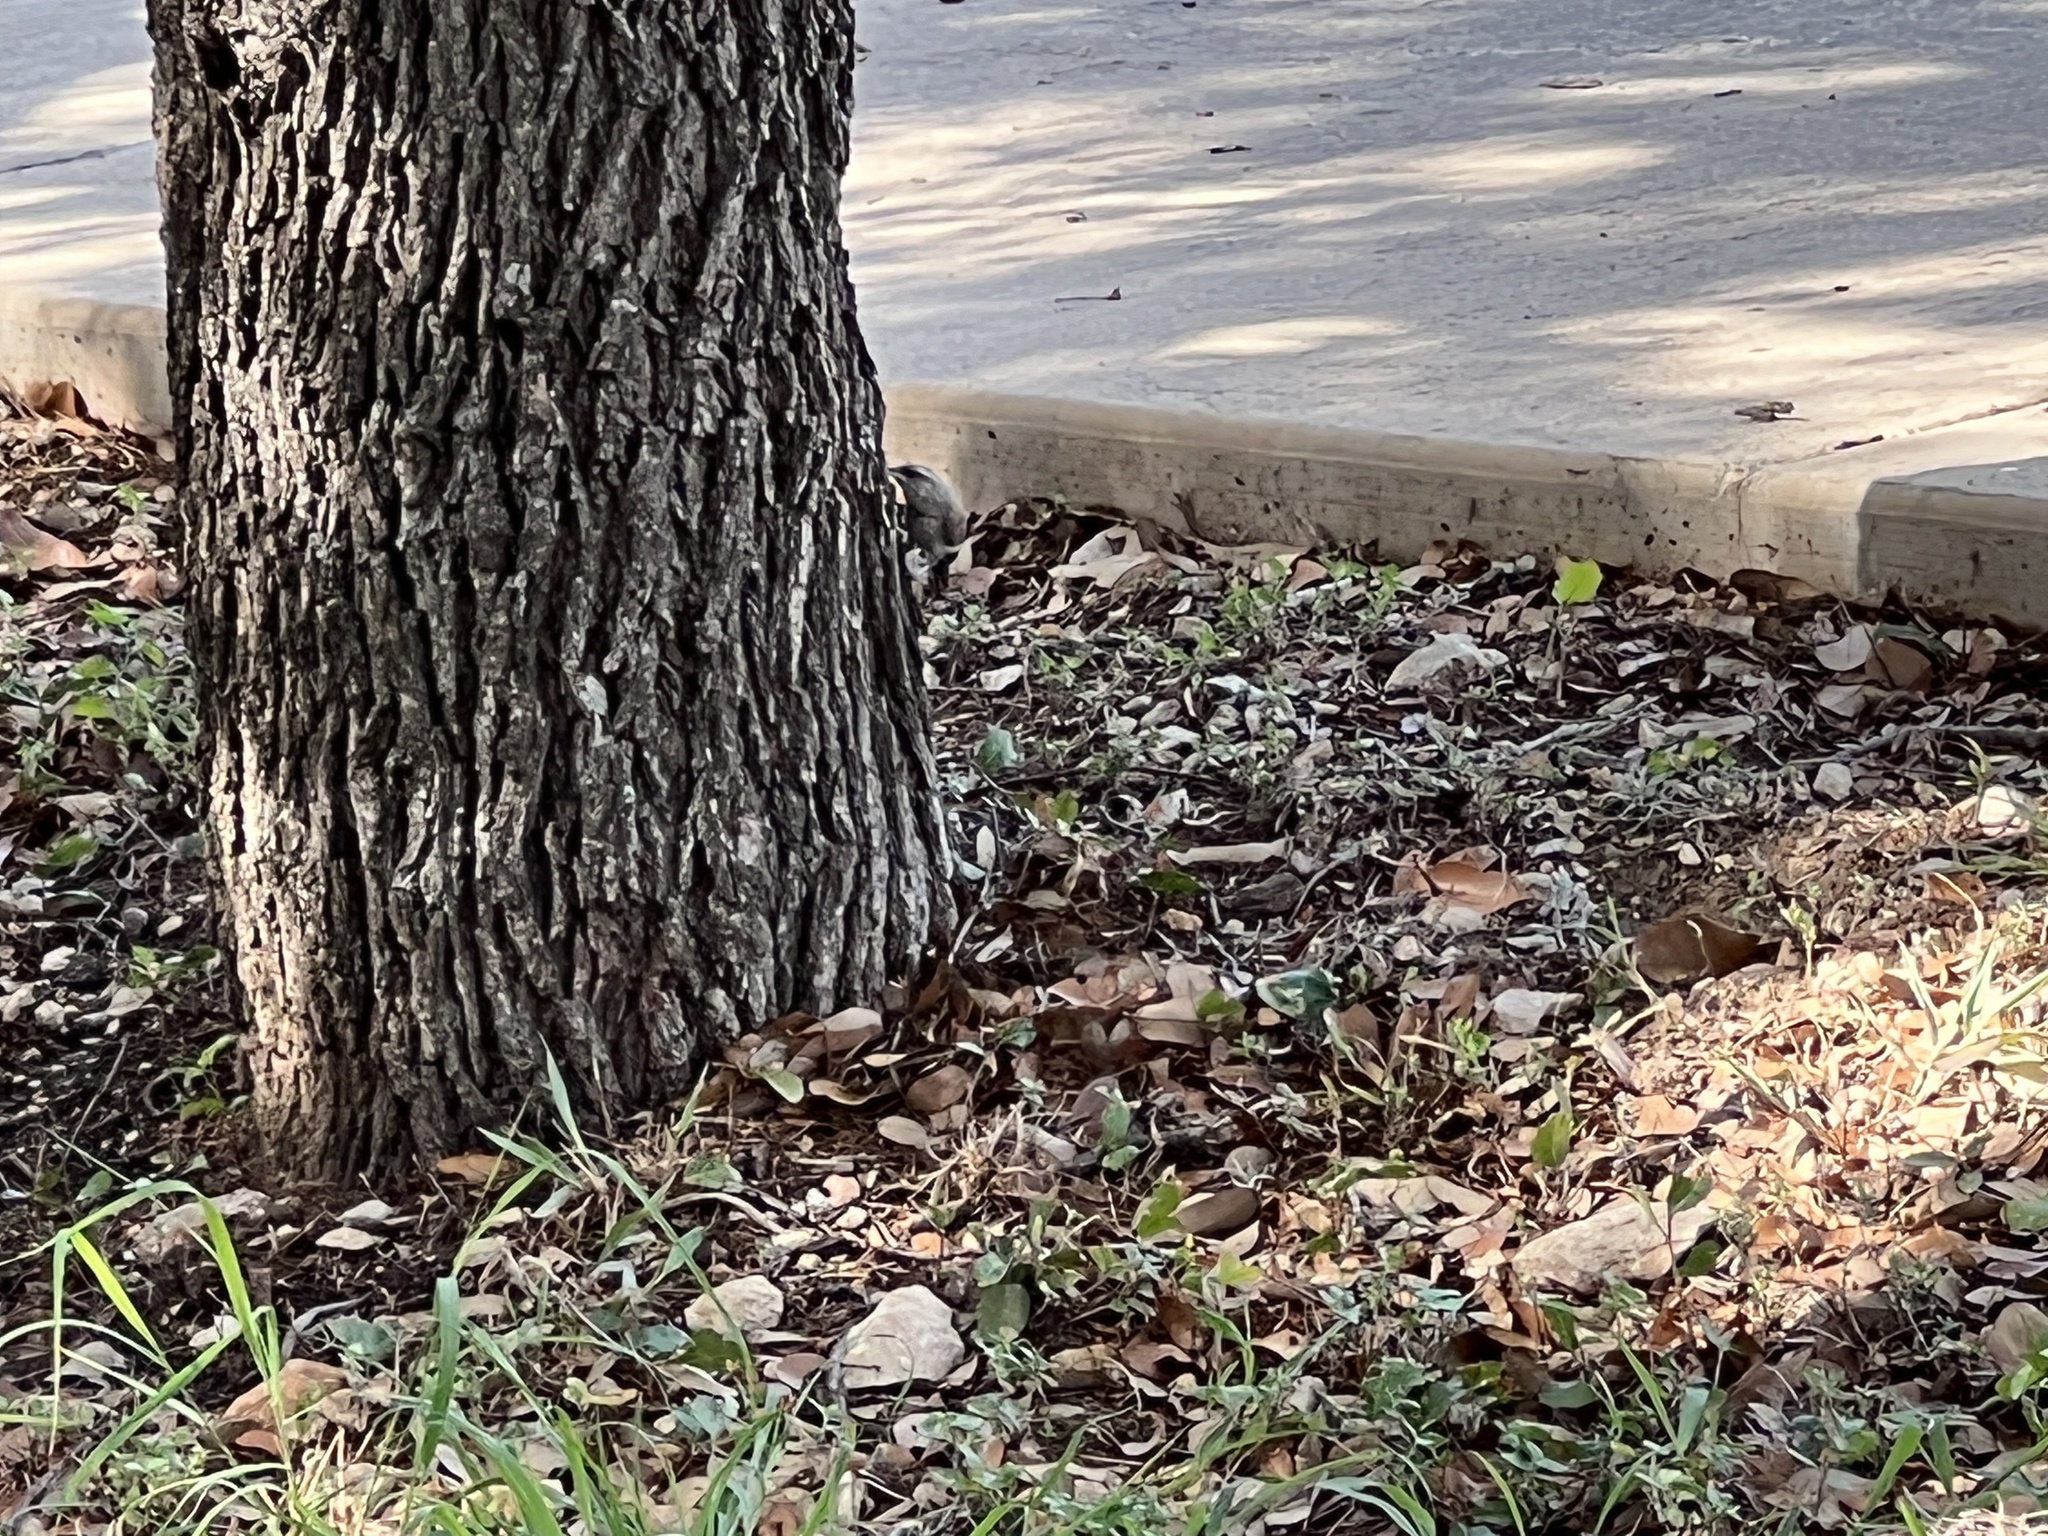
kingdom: Animalia
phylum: Chordata
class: Aves
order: Passeriformes
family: Sturnidae
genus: Sturnus
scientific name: Sturnus vulgaris
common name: Common starling
